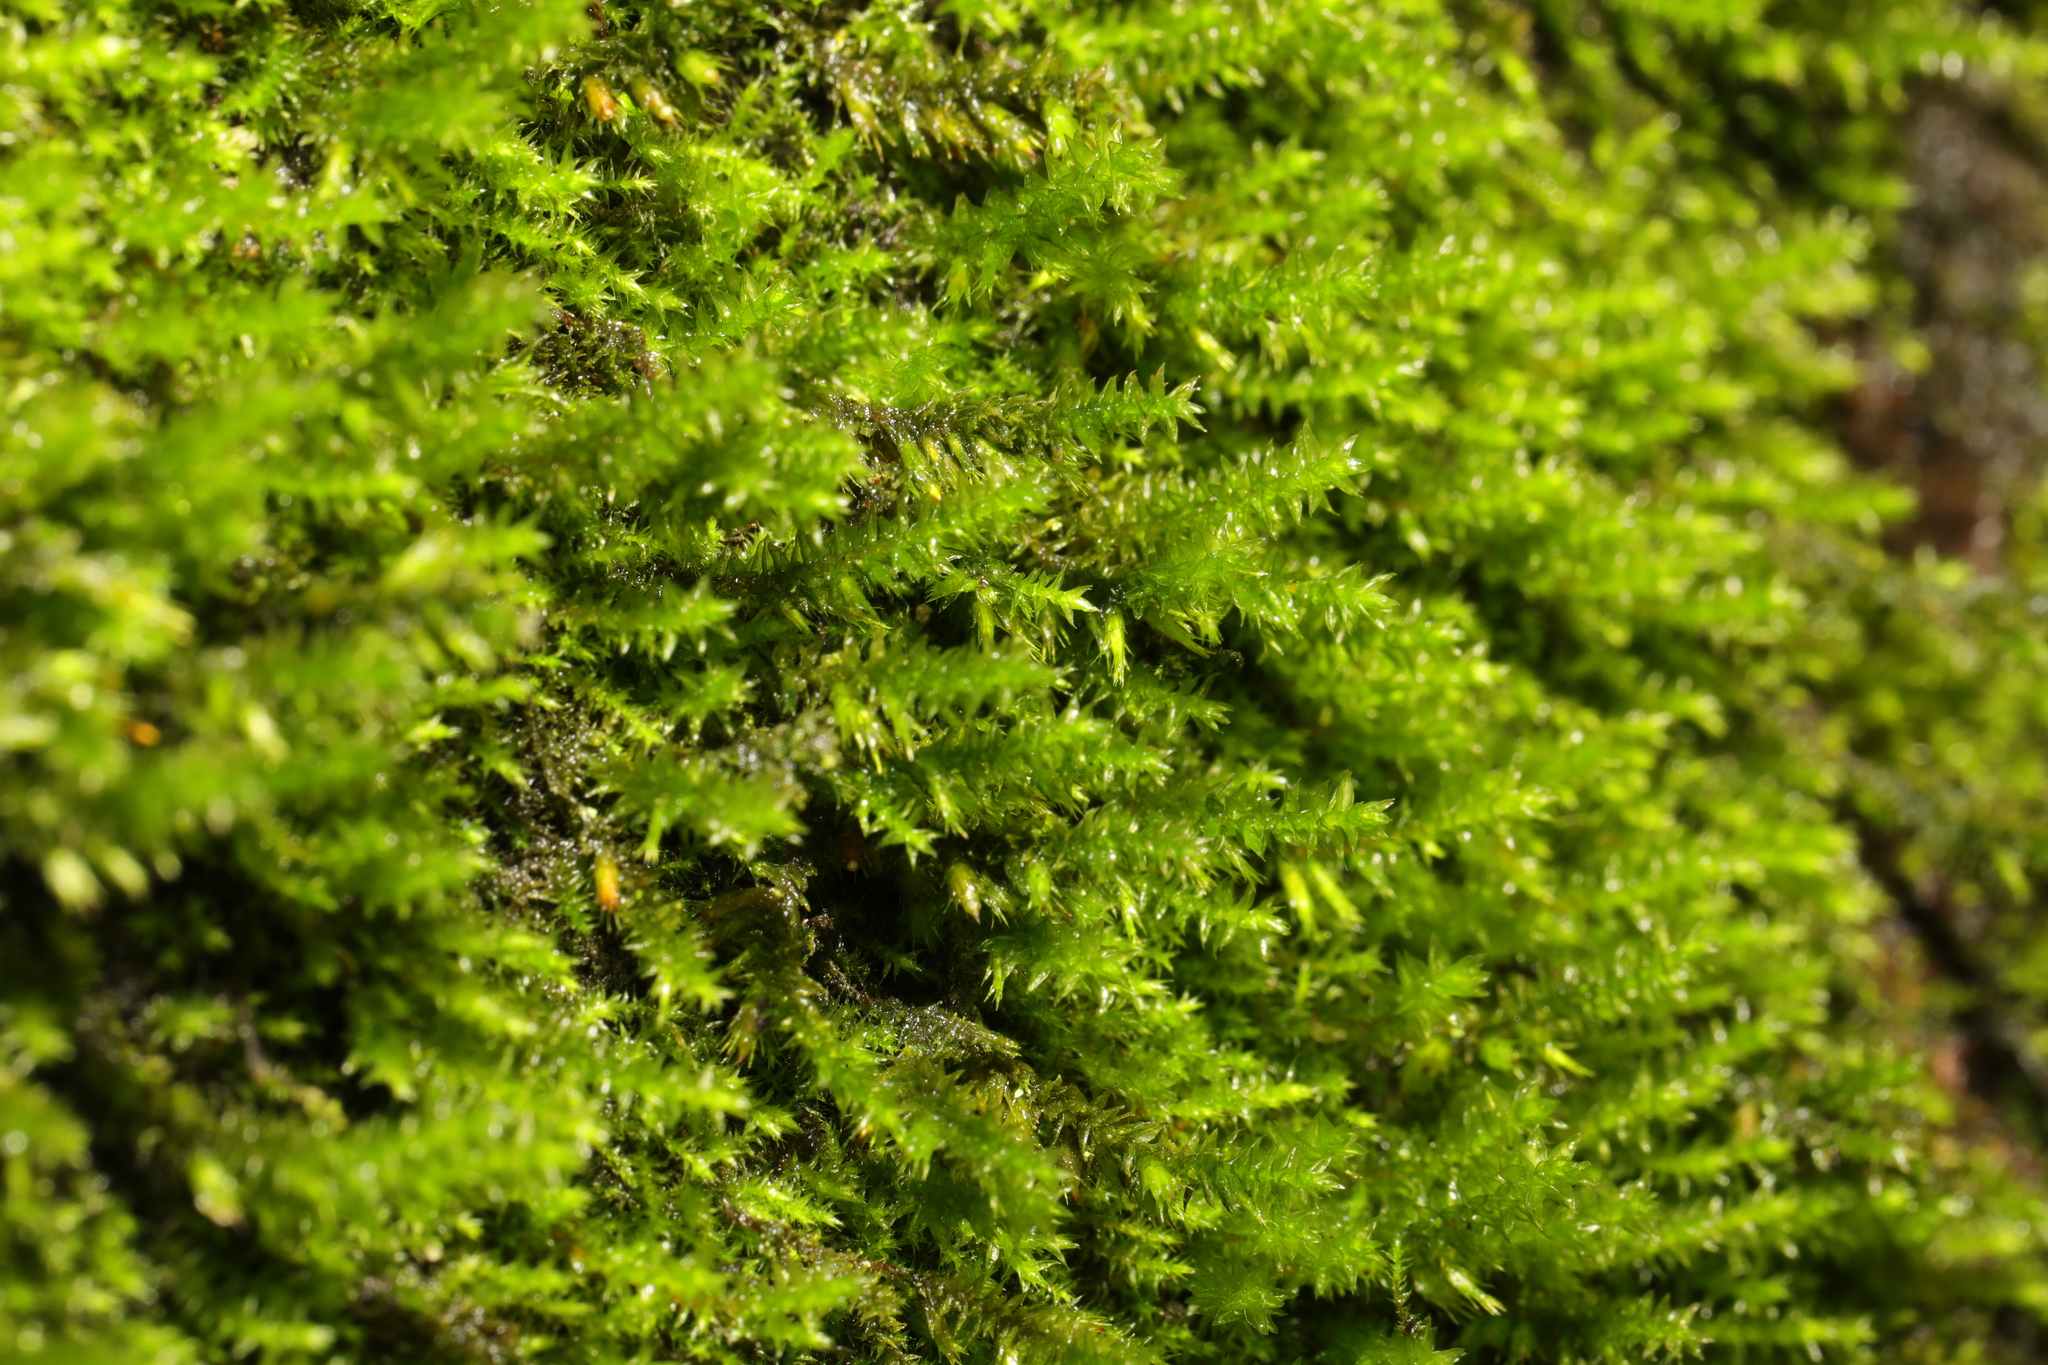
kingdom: Plantae
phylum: Bryophyta
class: Bryopsida
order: Hypnales
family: Cryphaeaceae
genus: Cryphaea
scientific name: Cryphaea heteromalla
